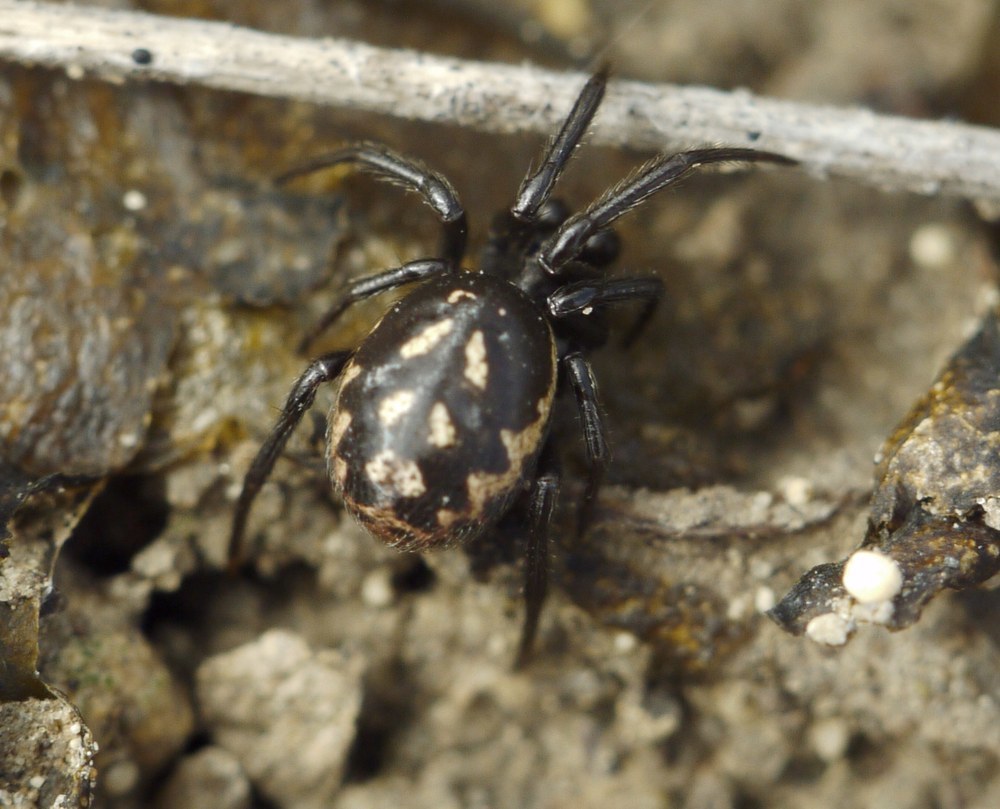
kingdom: Animalia
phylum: Arthropoda
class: Arachnida
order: Araneae
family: Theridiidae
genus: Steatoda
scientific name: Steatoda albomaculata
